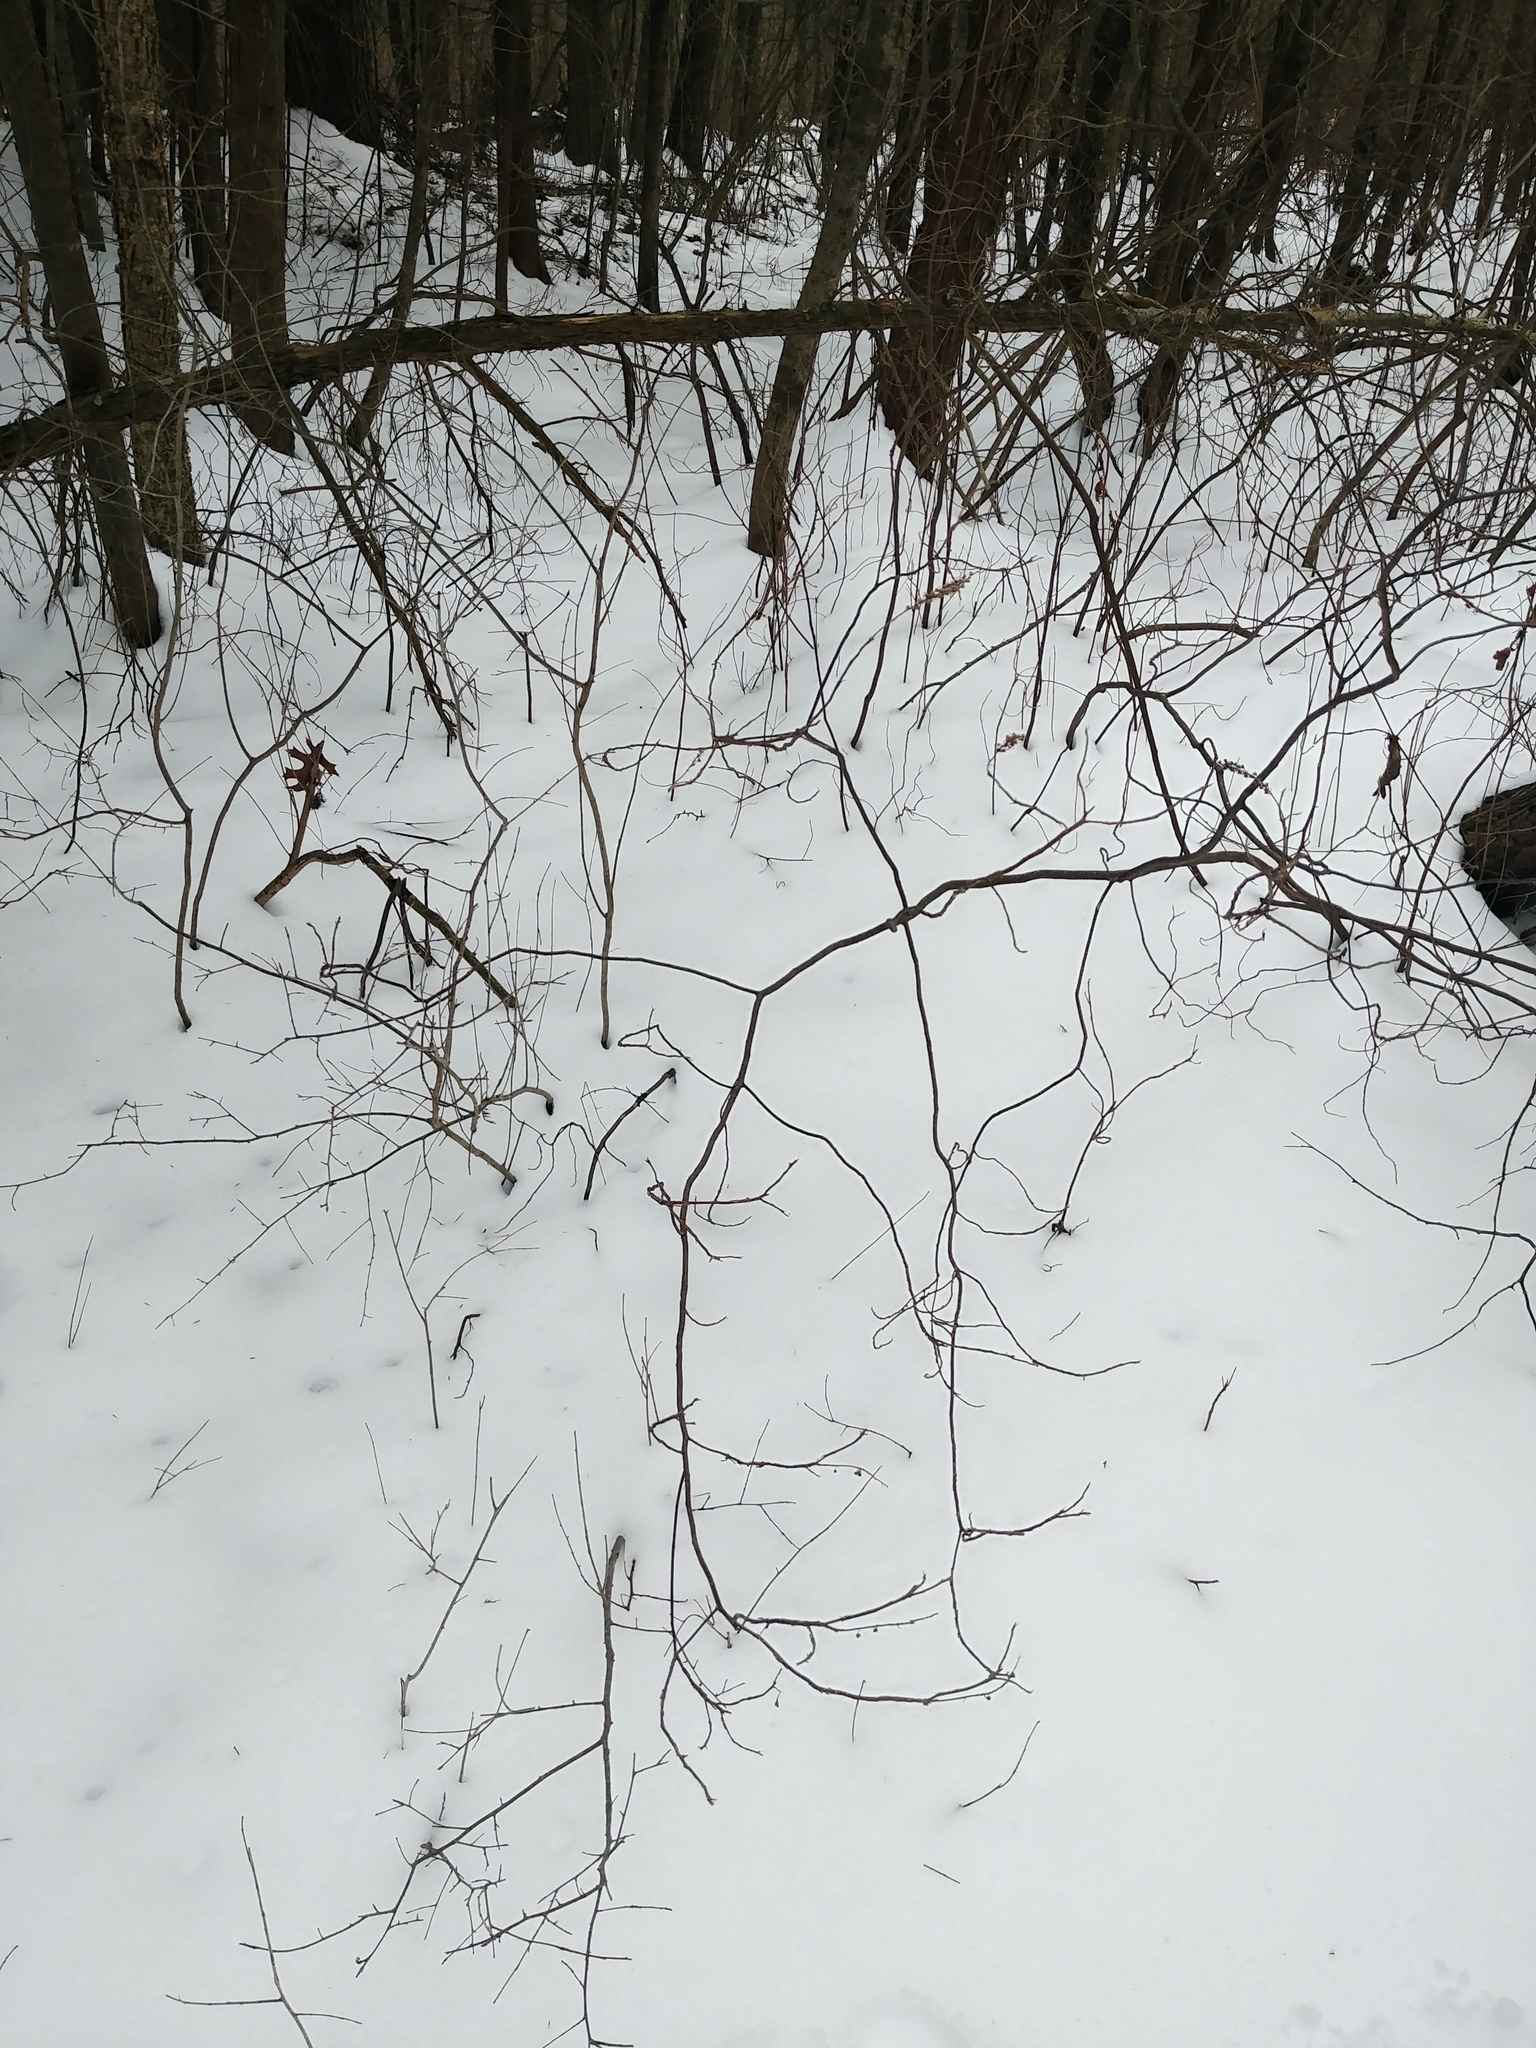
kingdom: Plantae
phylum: Tracheophyta
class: Magnoliopsida
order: Ericales
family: Clethraceae
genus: Clethra
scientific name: Clethra alnifolia
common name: Sweet pepperbush
